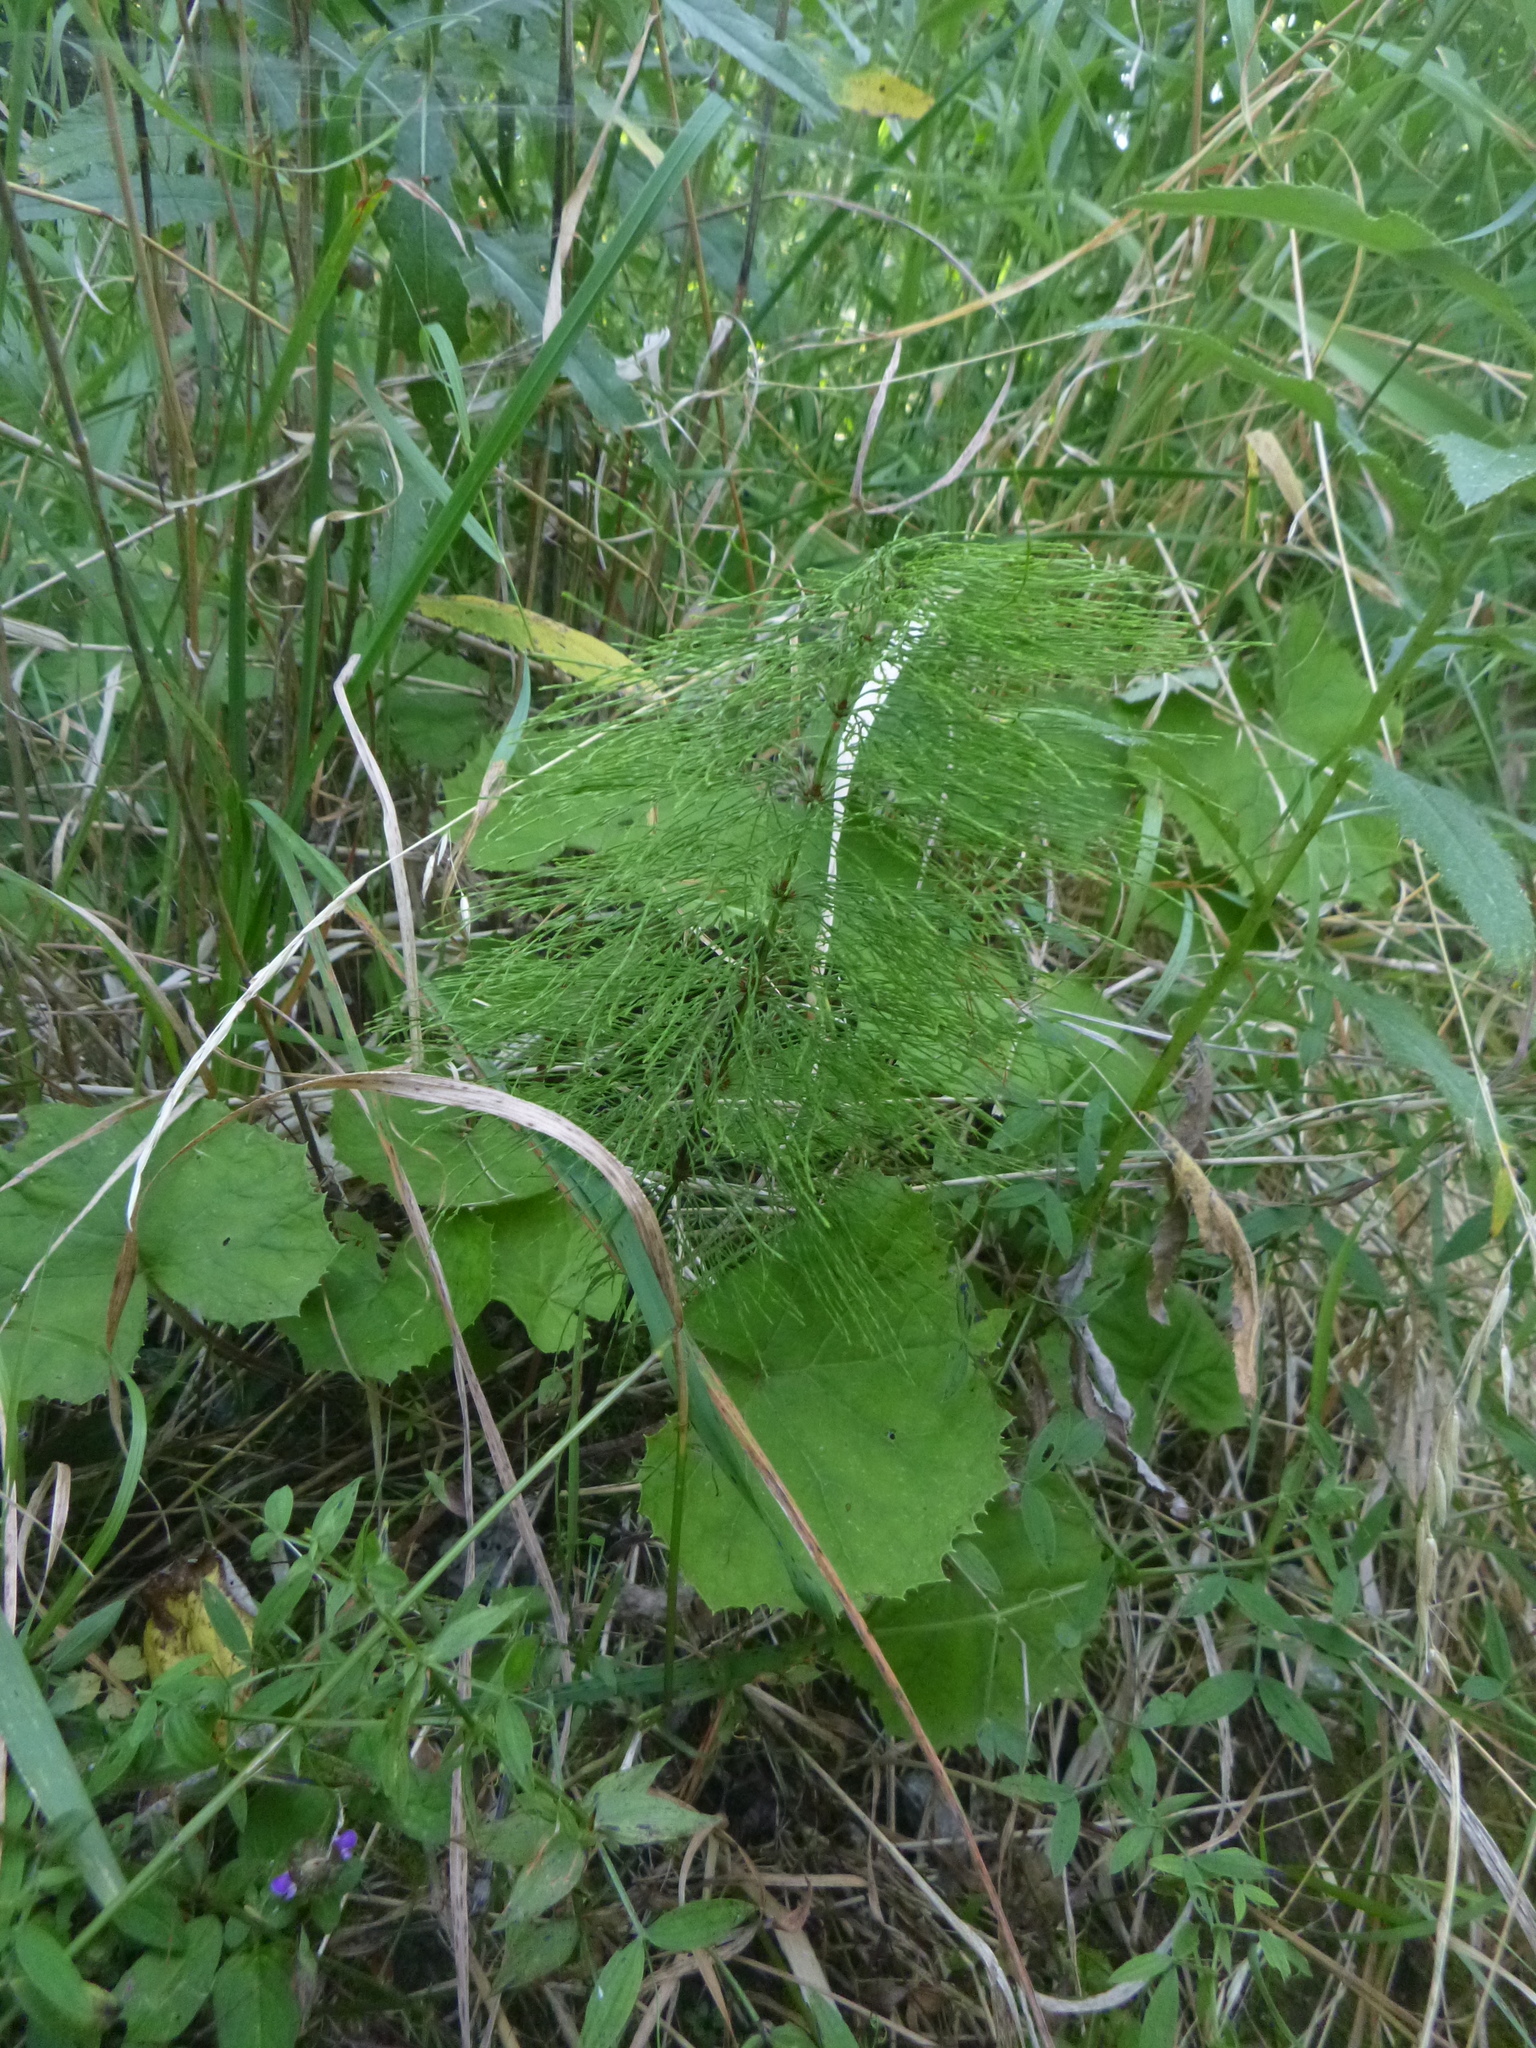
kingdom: Plantae
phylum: Tracheophyta
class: Polypodiopsida
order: Equisetales
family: Equisetaceae
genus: Equisetum
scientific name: Equisetum sylvaticum
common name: Wood horsetail
